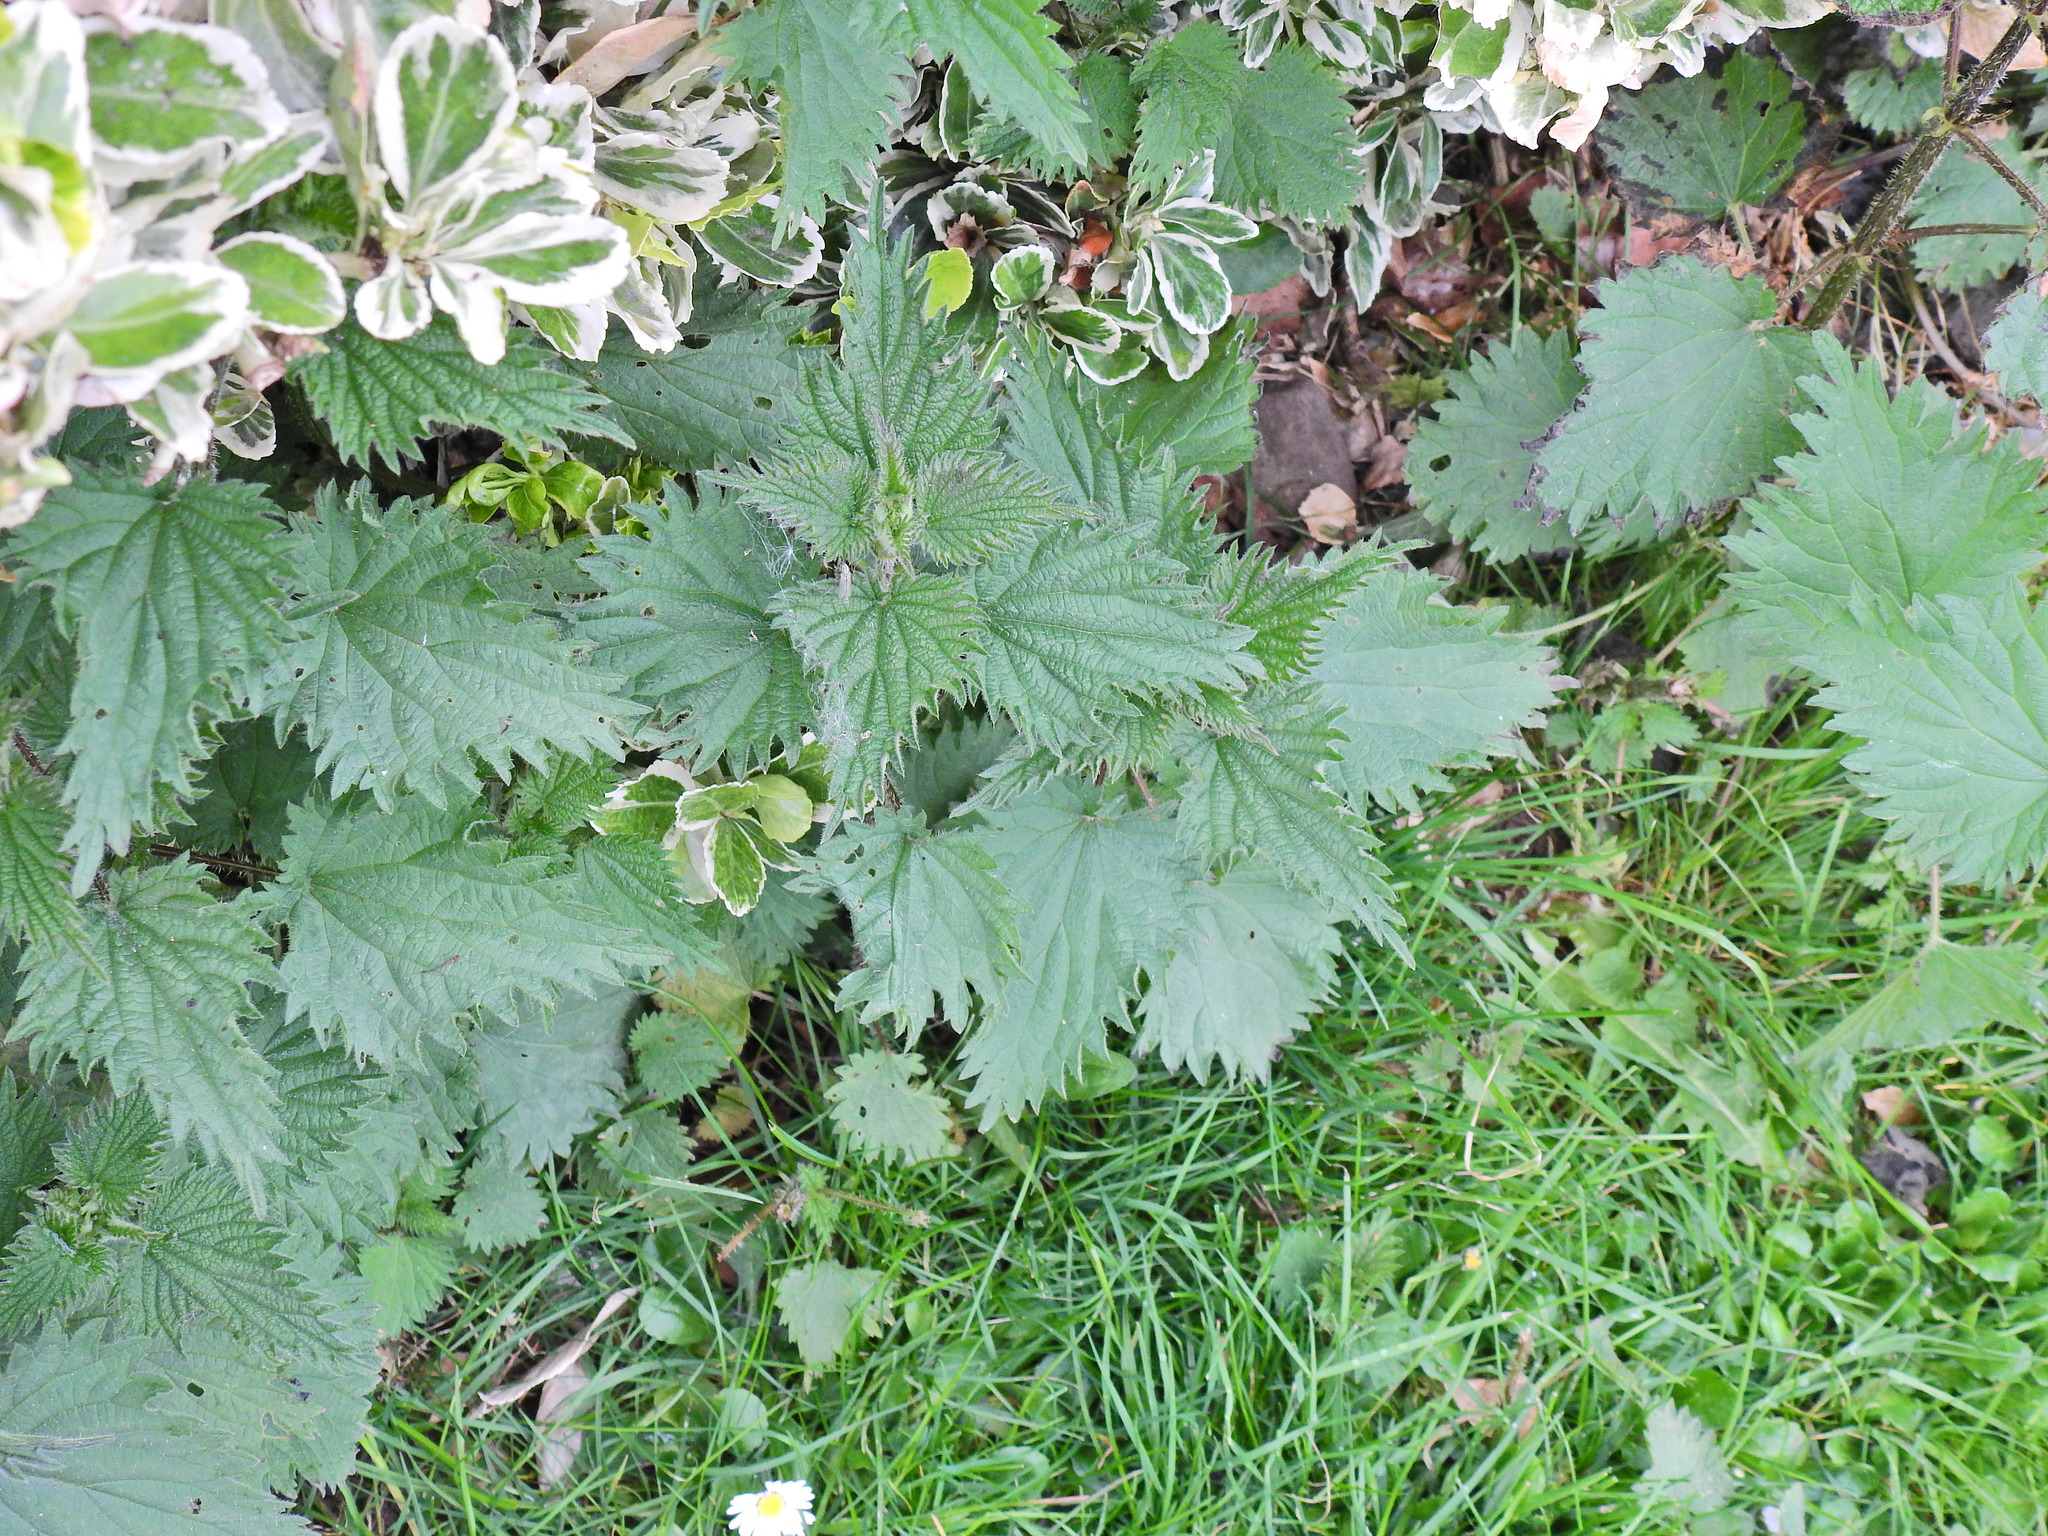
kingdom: Plantae
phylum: Tracheophyta
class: Magnoliopsida
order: Rosales
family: Urticaceae
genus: Urtica
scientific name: Urtica dioica
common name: Common nettle
